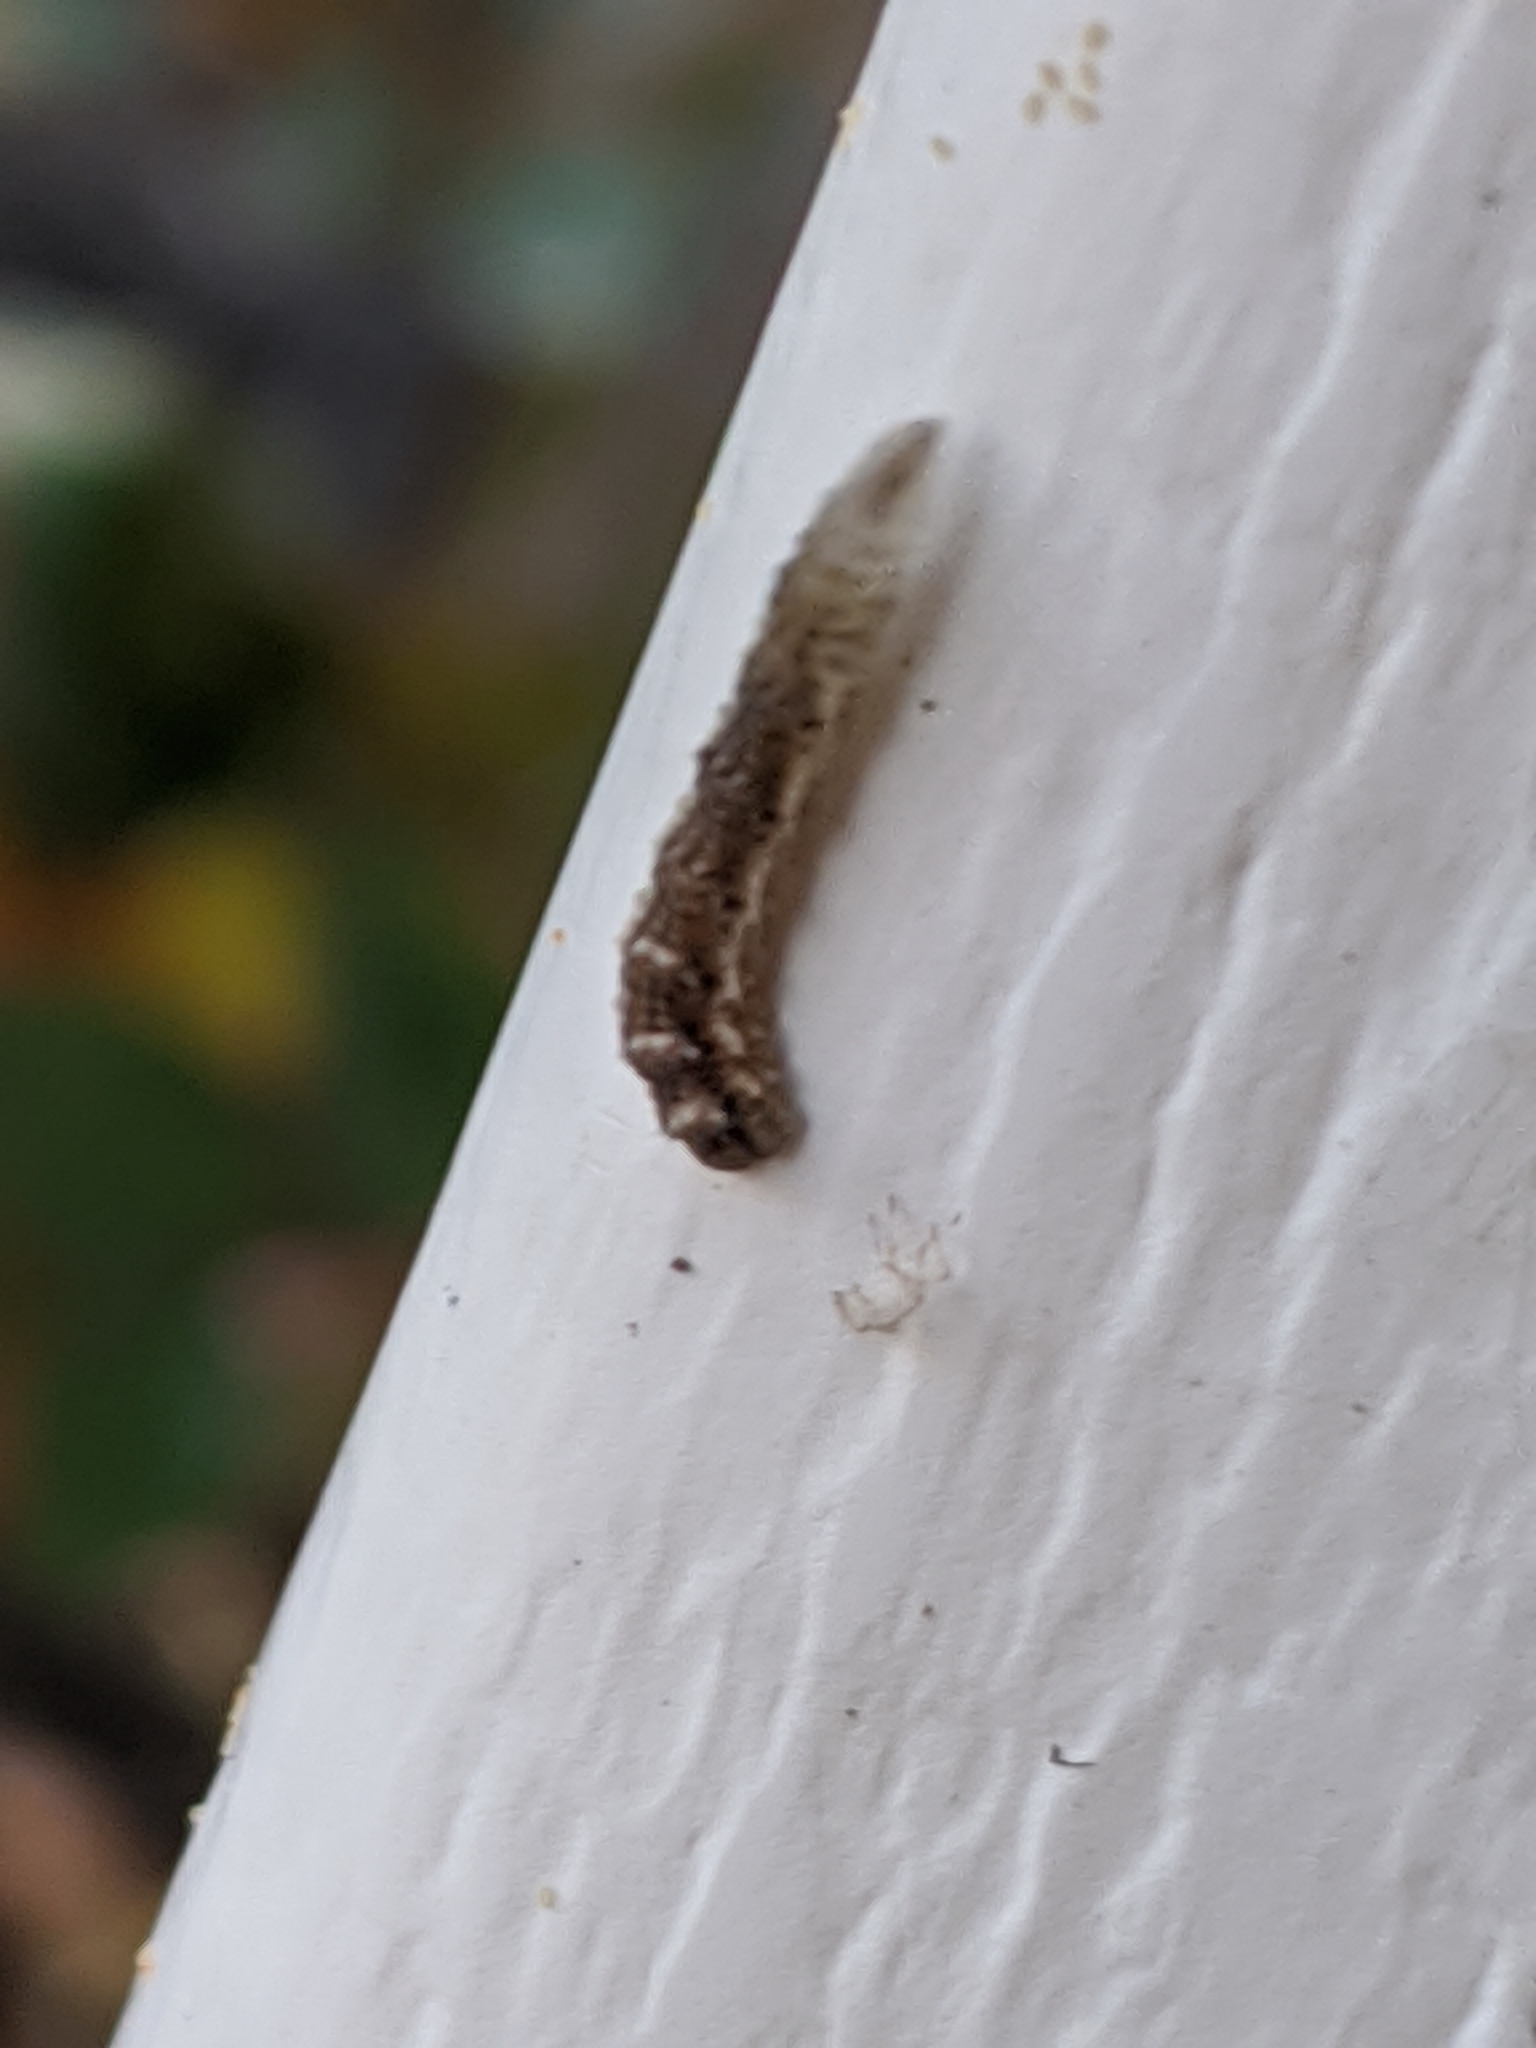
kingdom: Animalia
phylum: Arthropoda
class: Insecta
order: Diptera
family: Syrphidae
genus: Eupeodes
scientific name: Eupeodes americanus
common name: Long-tailed aphideater
